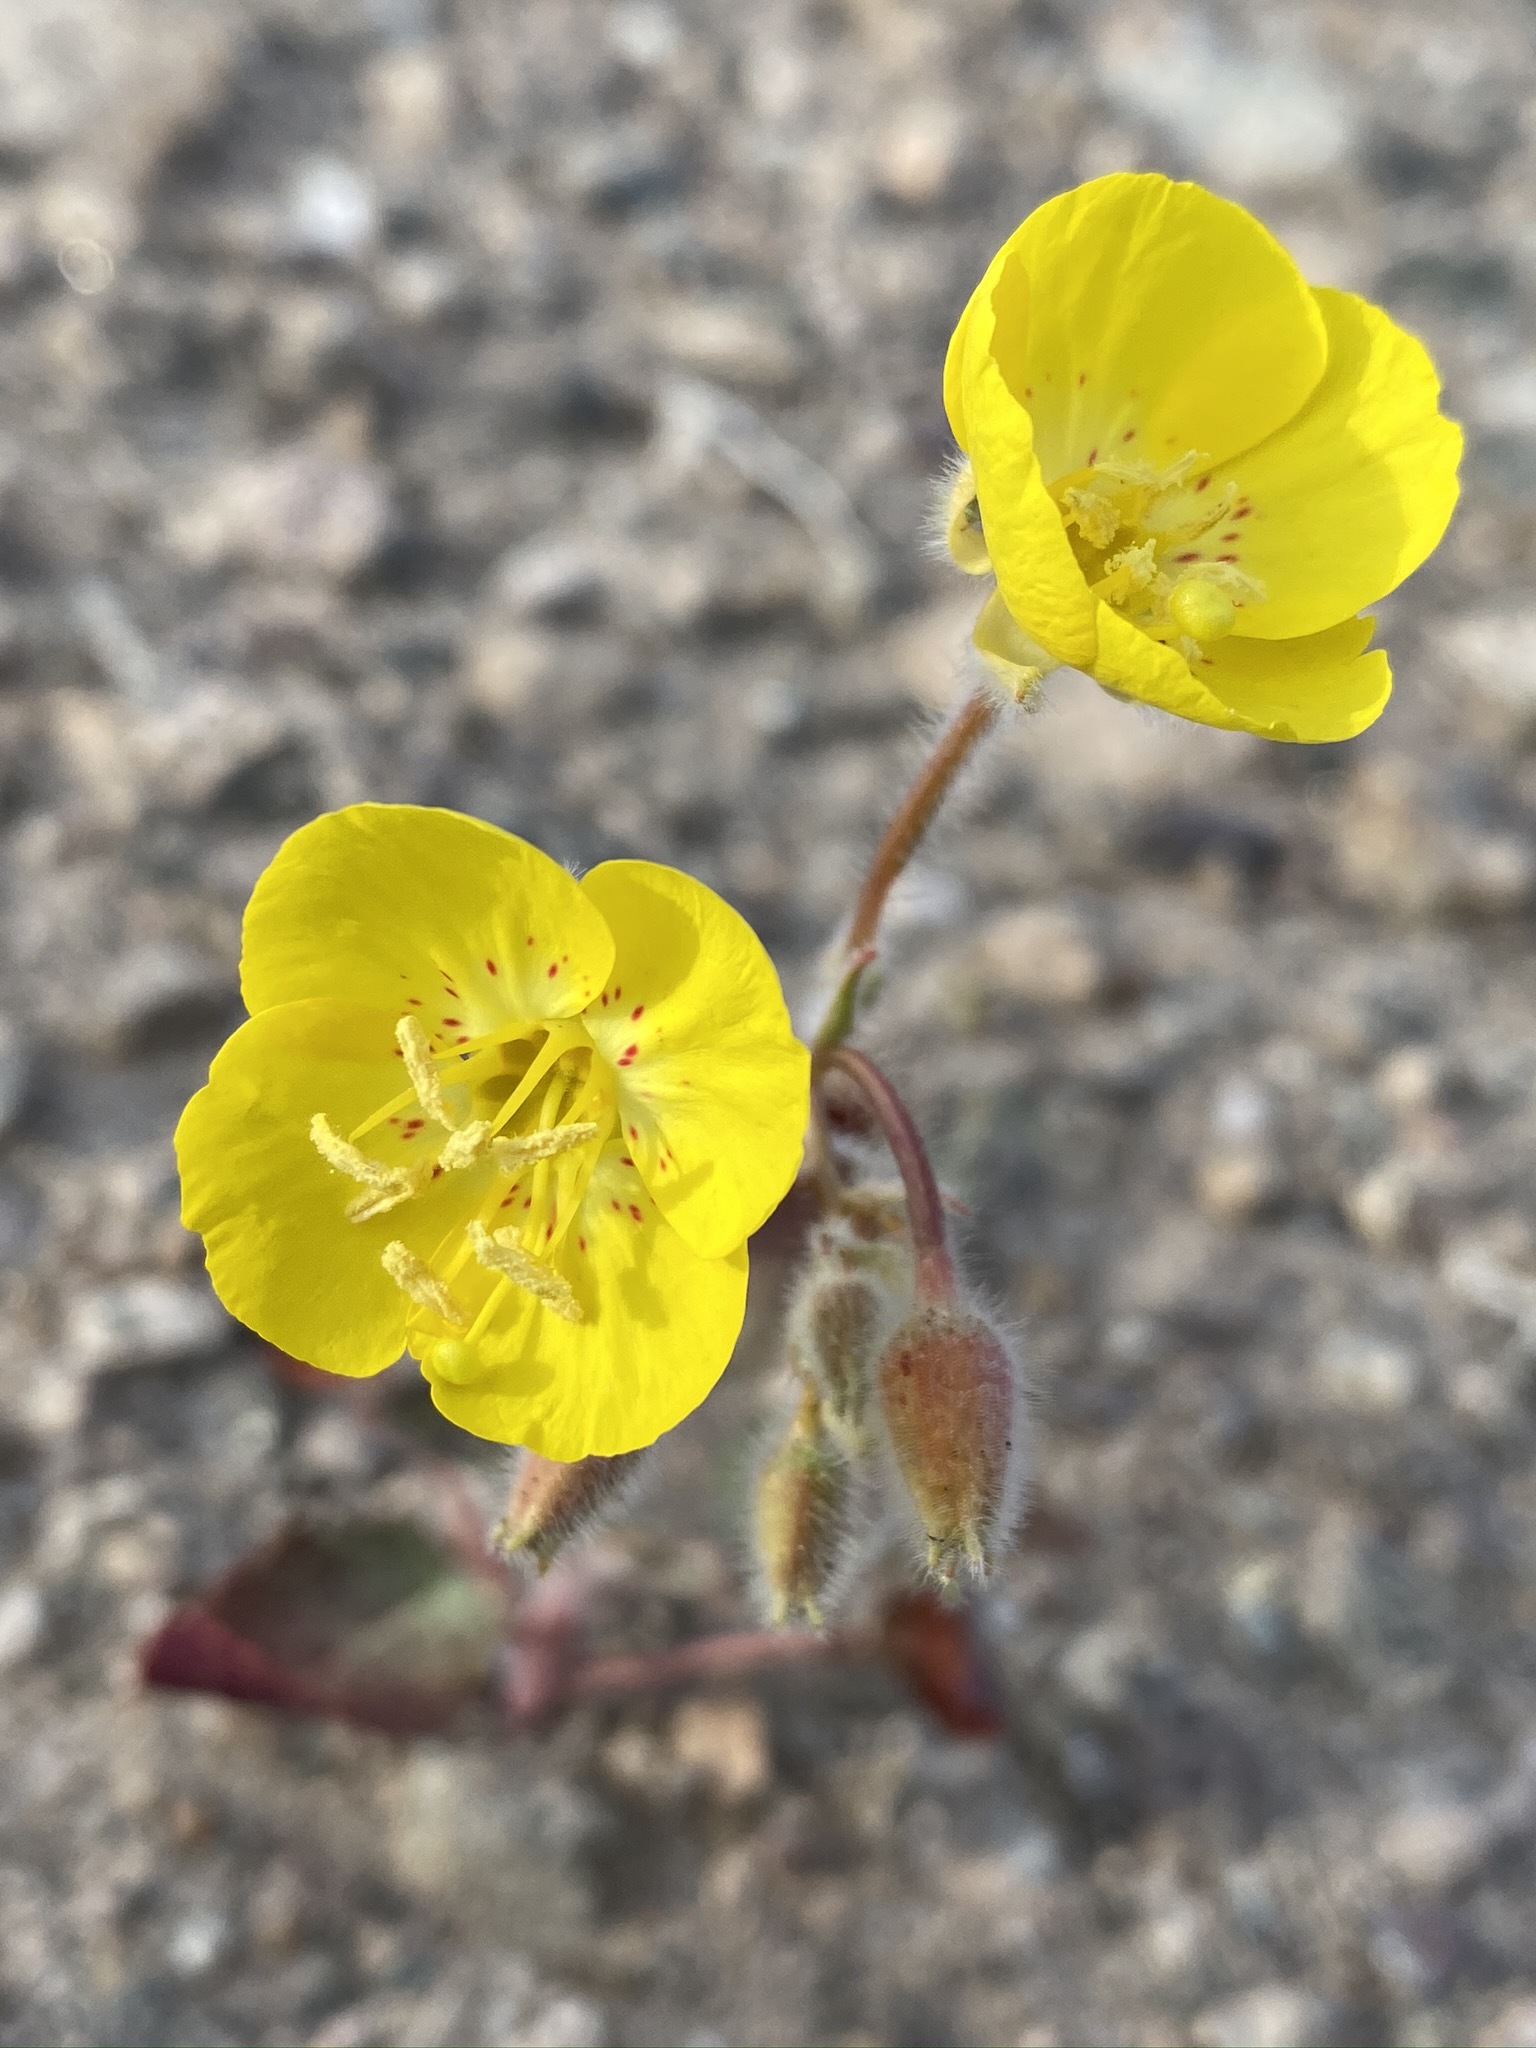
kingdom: Plantae
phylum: Tracheophyta
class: Magnoliopsida
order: Myrtales
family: Onagraceae
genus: Chylismia
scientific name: Chylismia brevipes
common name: Yellow cups
